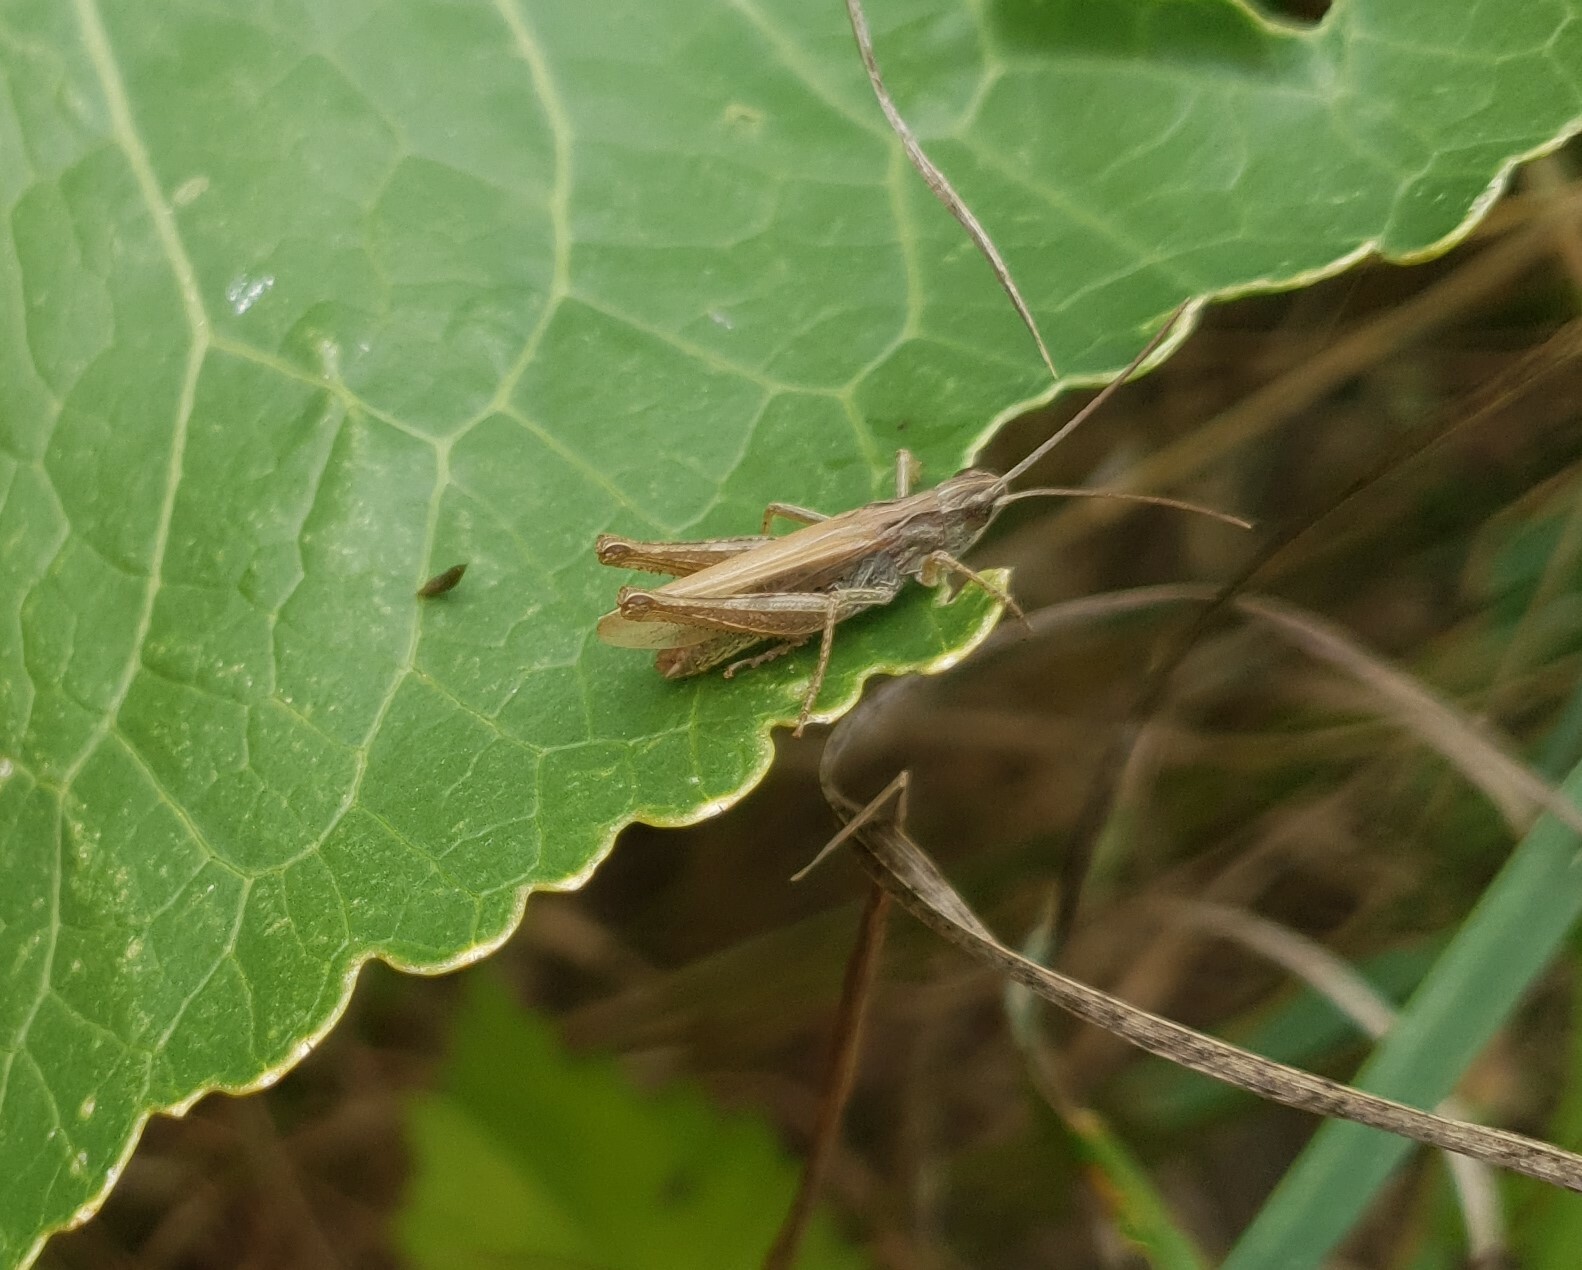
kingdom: Animalia
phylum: Arthropoda
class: Insecta
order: Orthoptera
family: Acrididae
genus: Chorthippus
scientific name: Chorthippus apricarius
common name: Upland field grasshopper
